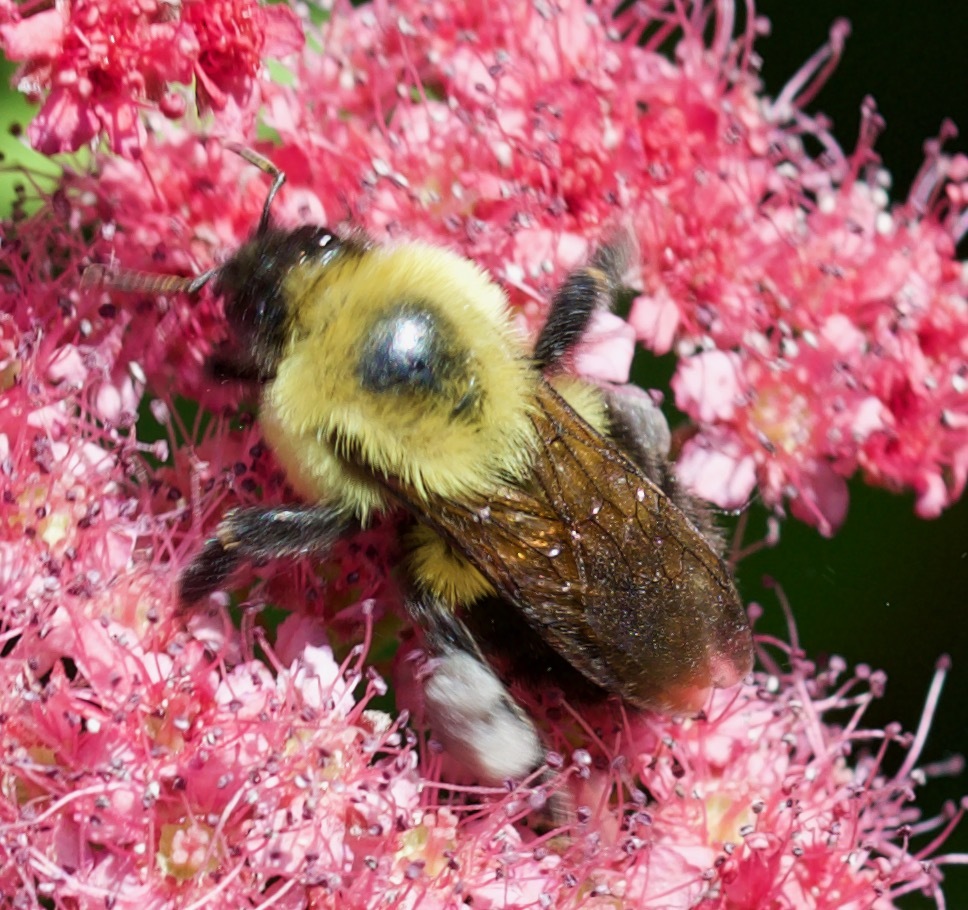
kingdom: Animalia
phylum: Arthropoda
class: Insecta
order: Hymenoptera
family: Apidae
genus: Bombus
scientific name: Bombus bimaculatus
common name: Two-spotted bumble bee
